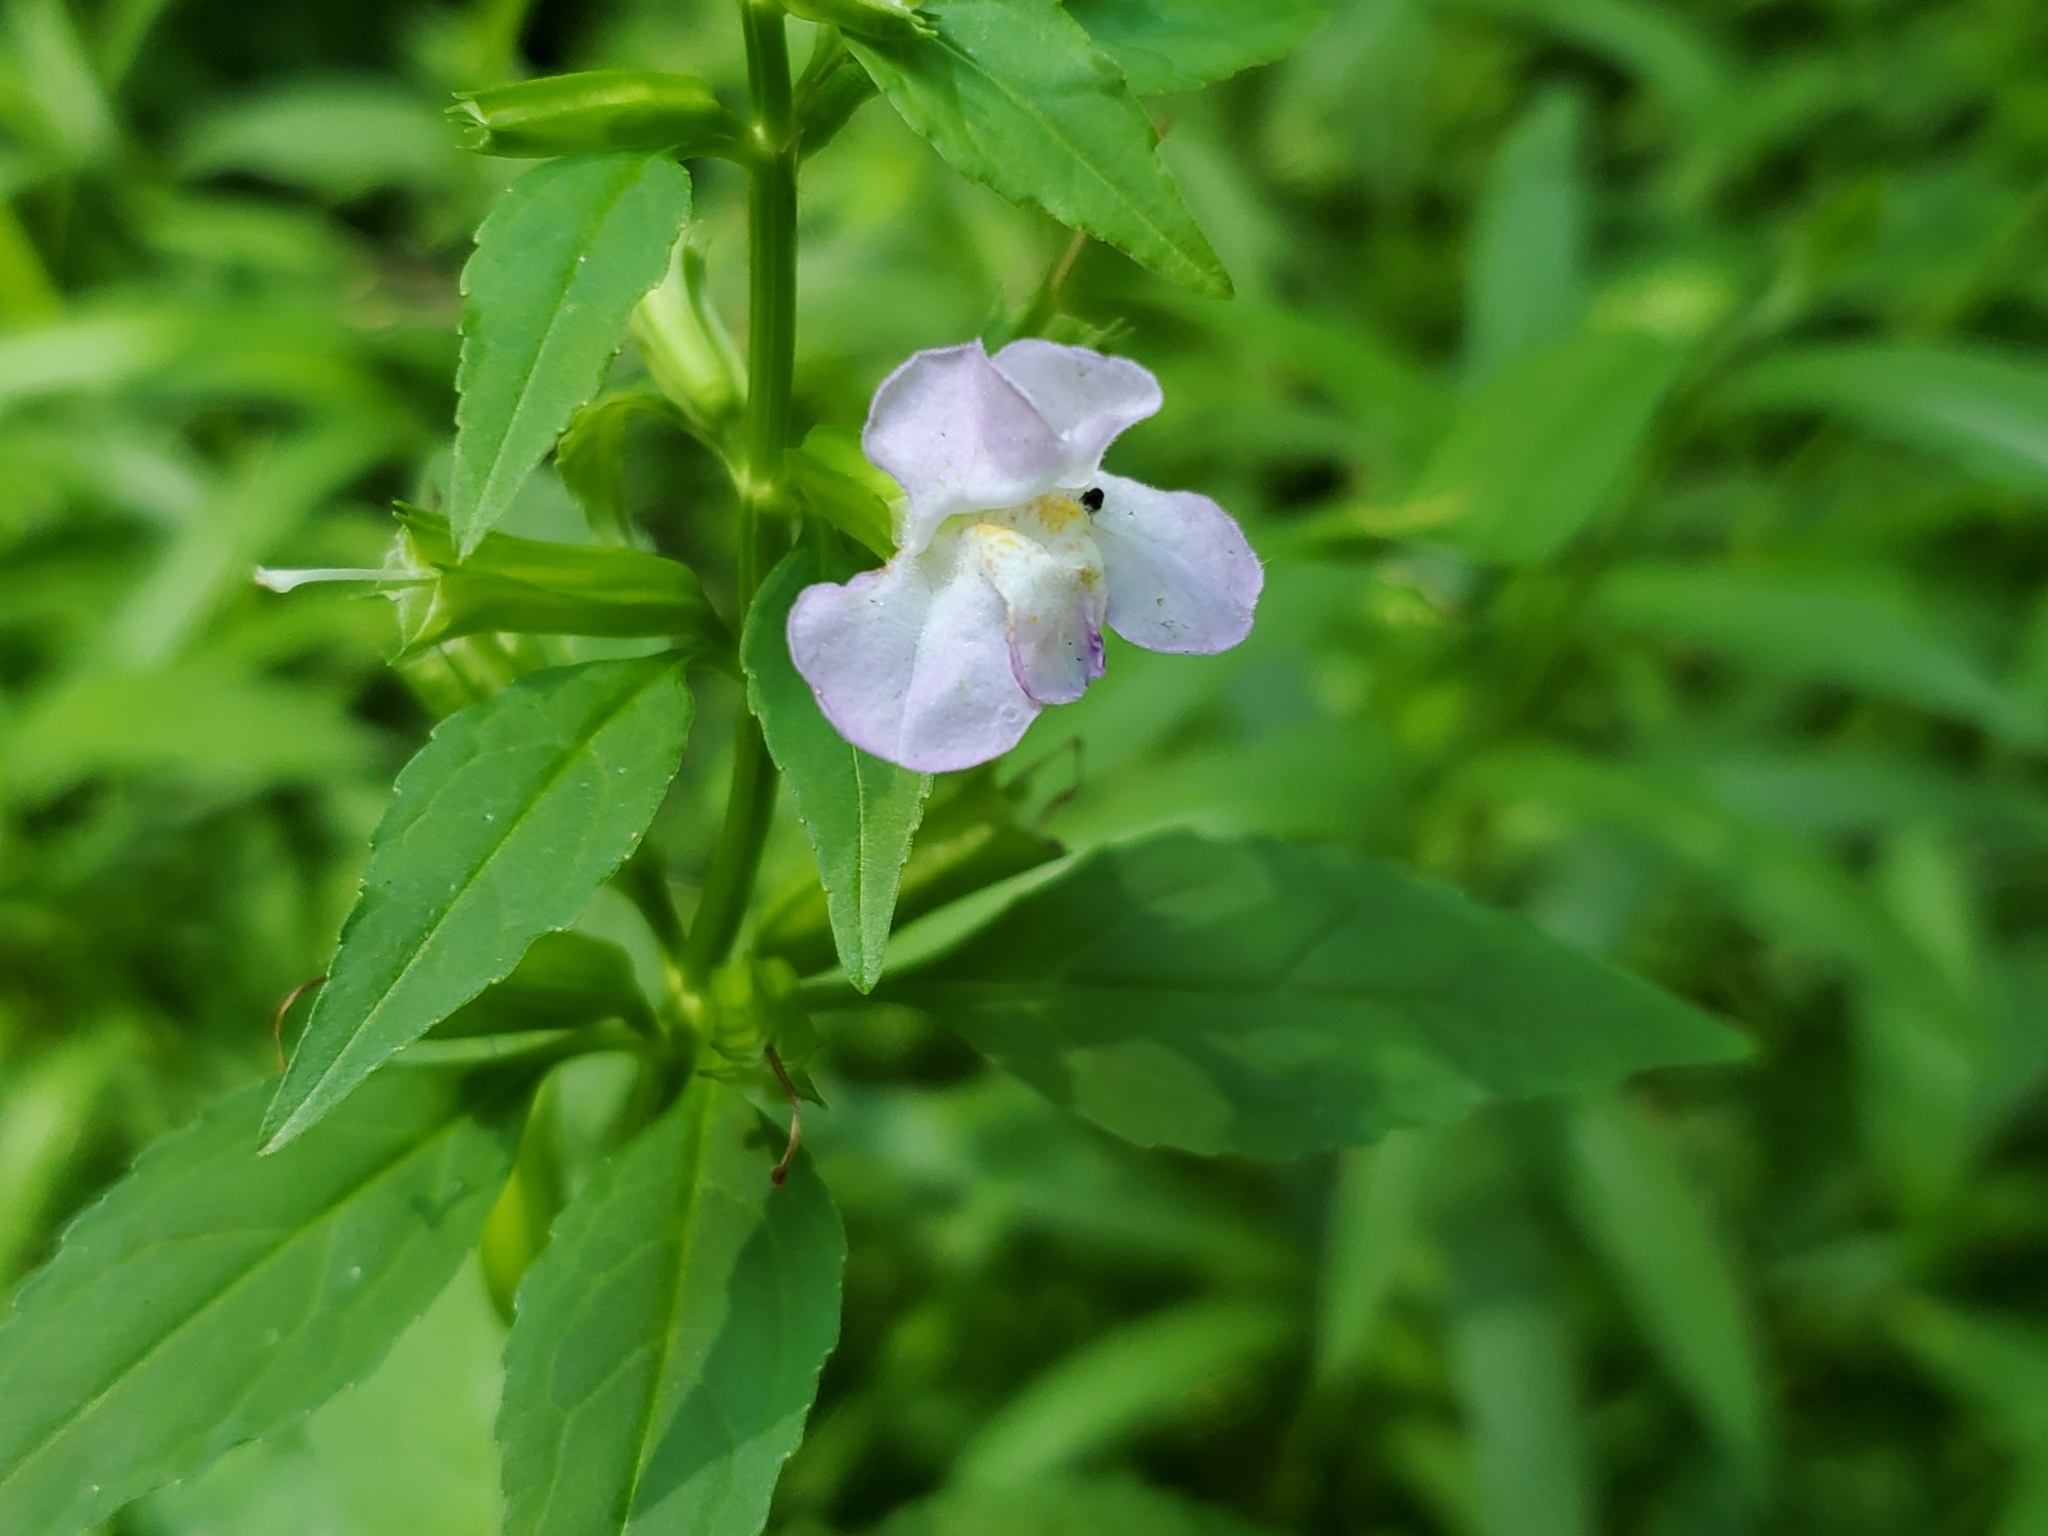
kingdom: Plantae
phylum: Tracheophyta
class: Magnoliopsida
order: Lamiales
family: Phrymaceae
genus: Mimulus
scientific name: Mimulus alatus
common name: Sharp-wing monkey-flower
